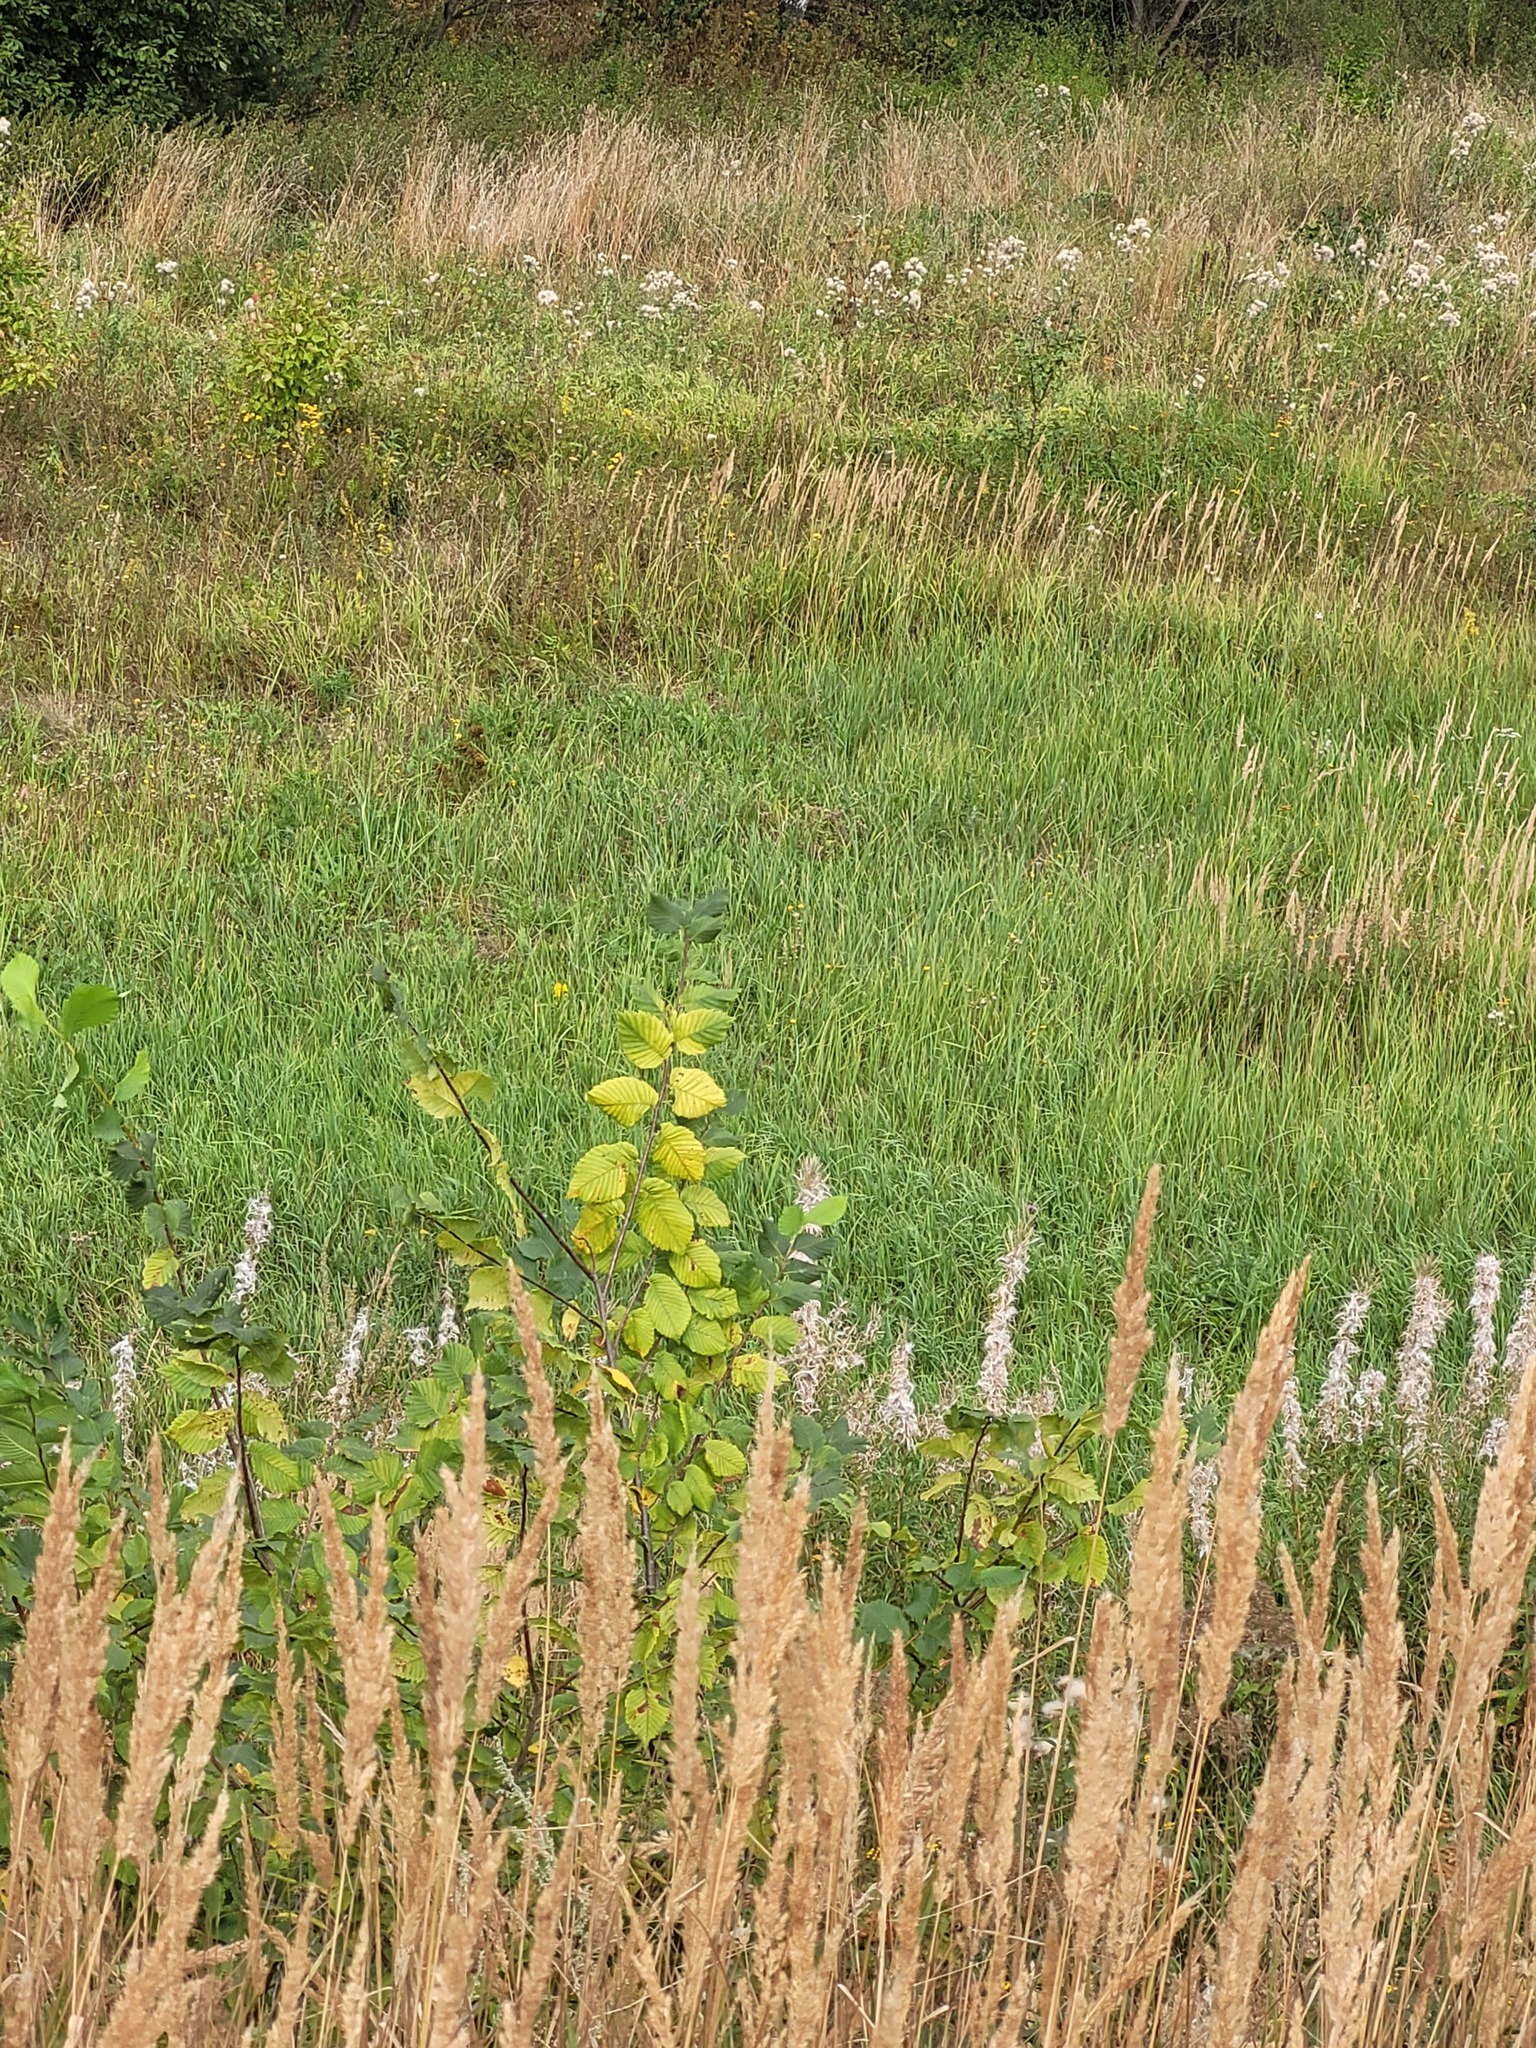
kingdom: Plantae
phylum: Tracheophyta
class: Magnoliopsida
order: Rosales
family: Ulmaceae
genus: Ulmus
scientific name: Ulmus laevis
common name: European white-elm
